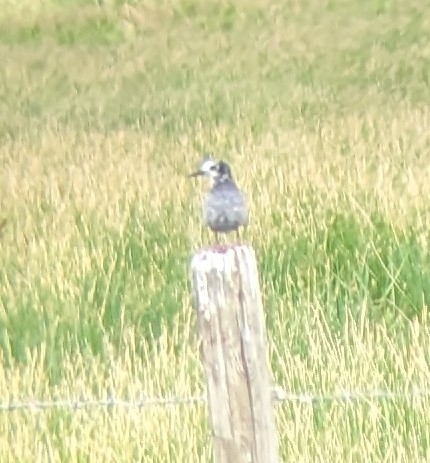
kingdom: Animalia
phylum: Chordata
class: Aves
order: Charadriiformes
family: Laridae
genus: Chlidonias
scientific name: Chlidonias niger
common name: Black tern
